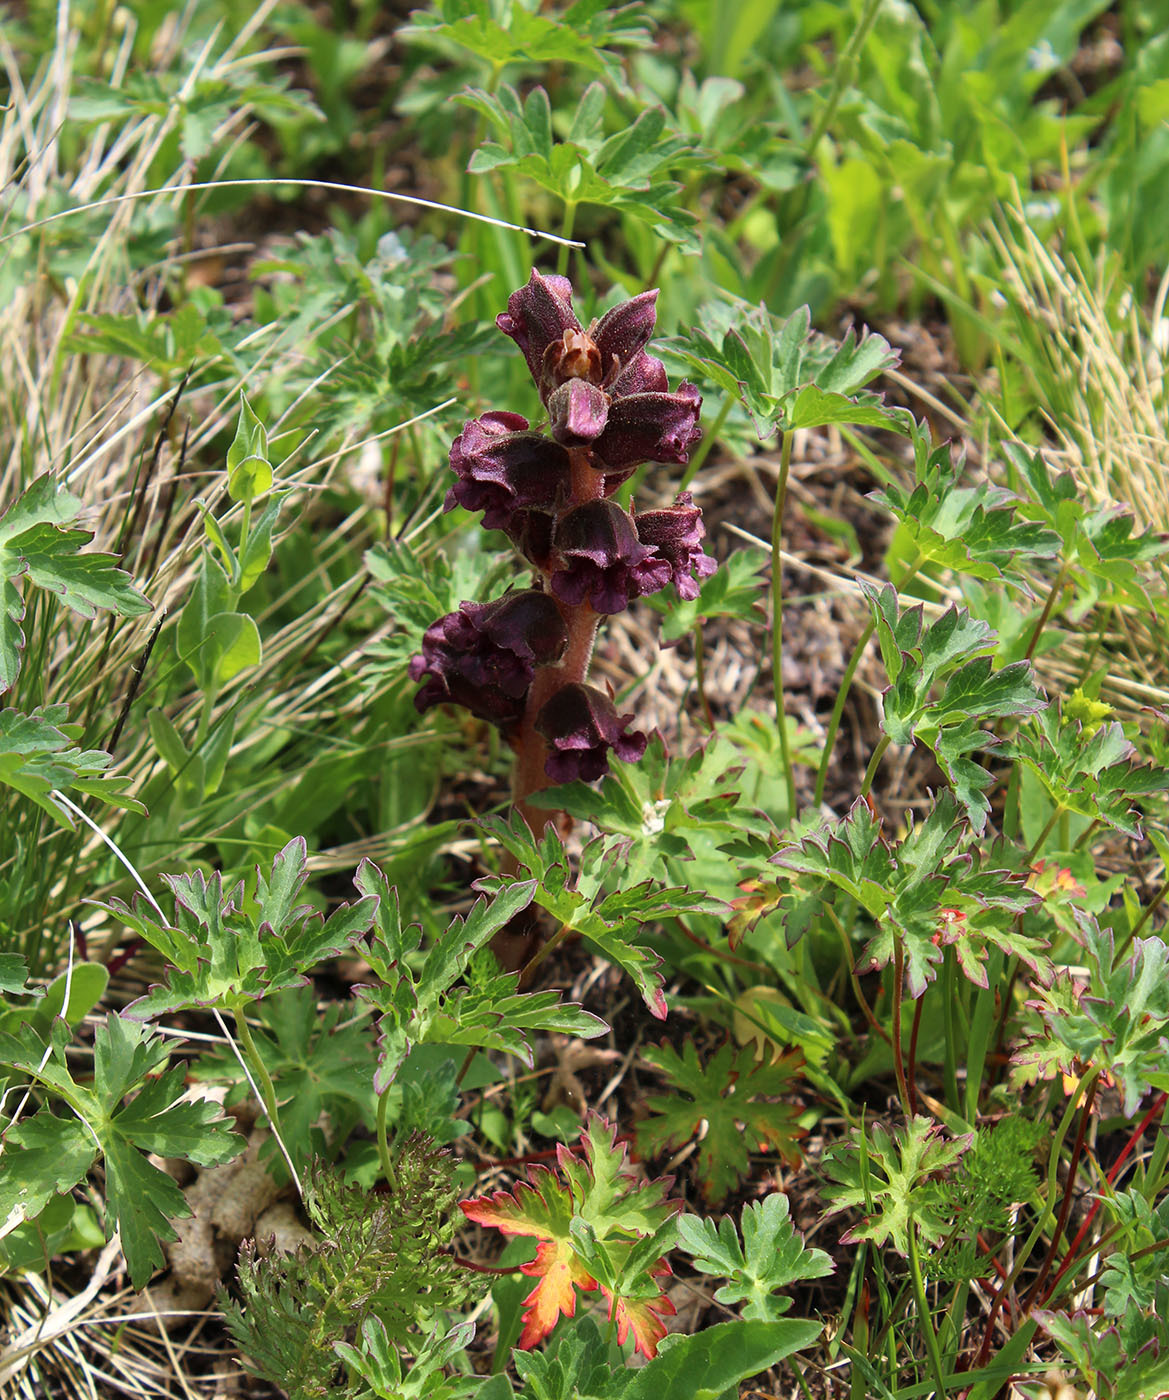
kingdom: Plantae
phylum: Tracheophyta
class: Magnoliopsida
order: Lamiales
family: Orobanchaceae
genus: Orobanche
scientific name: Orobanche gamosepala
